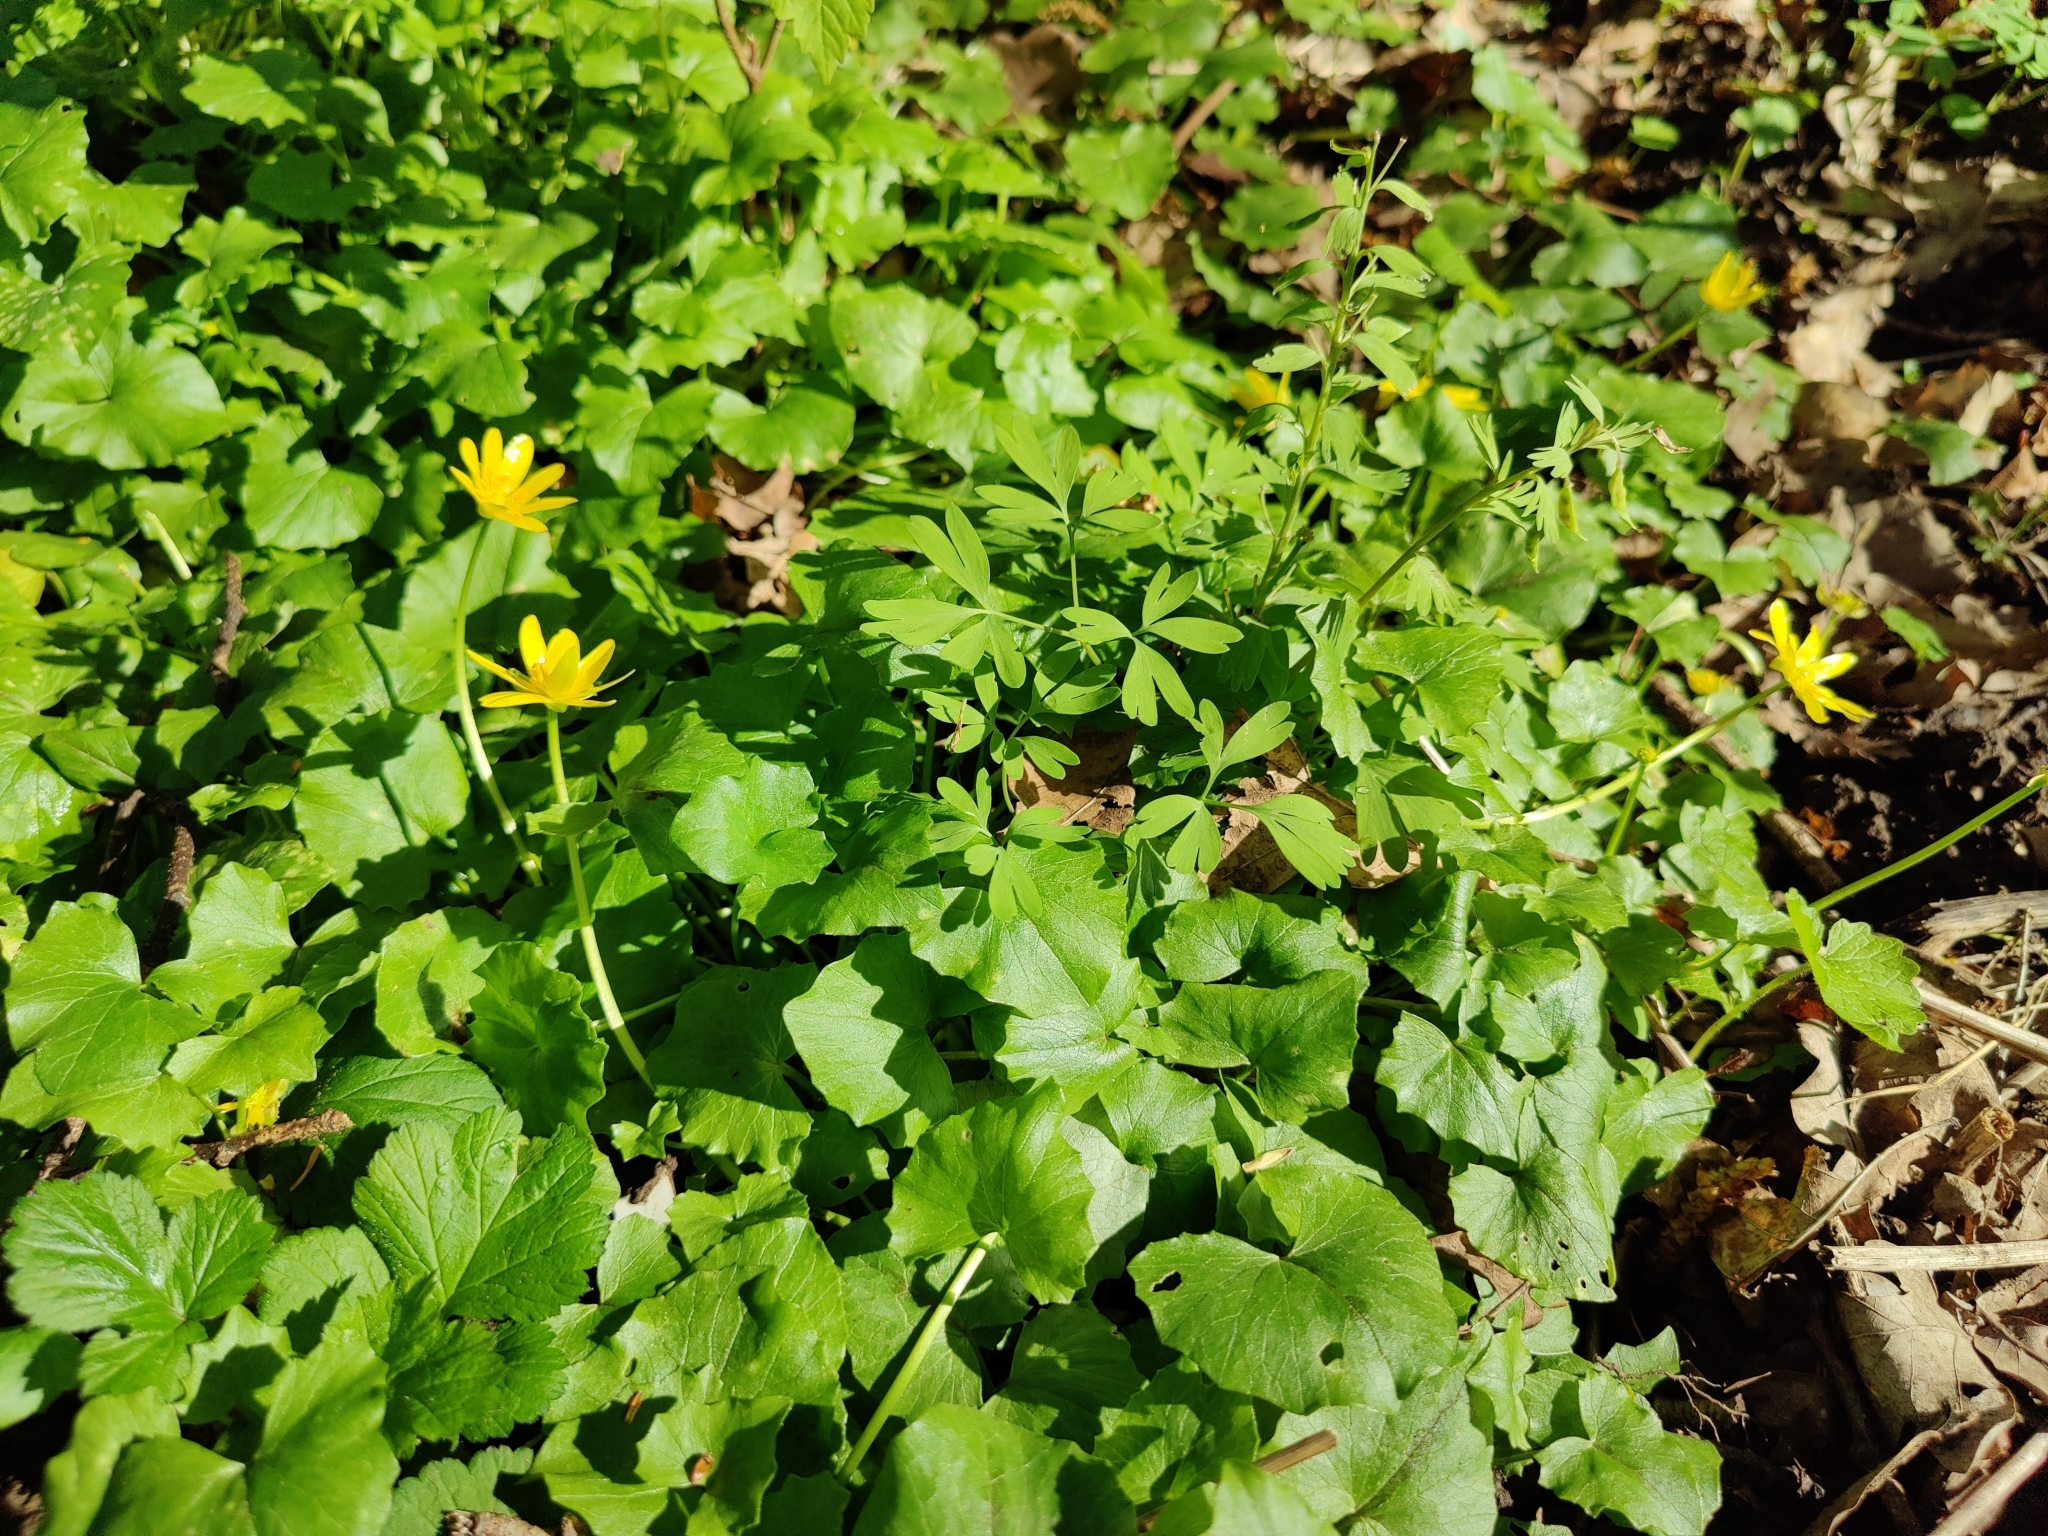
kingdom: Plantae
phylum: Tracheophyta
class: Magnoliopsida
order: Ranunculales
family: Ranunculaceae
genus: Ficaria
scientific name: Ficaria verna
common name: Lesser celandine
